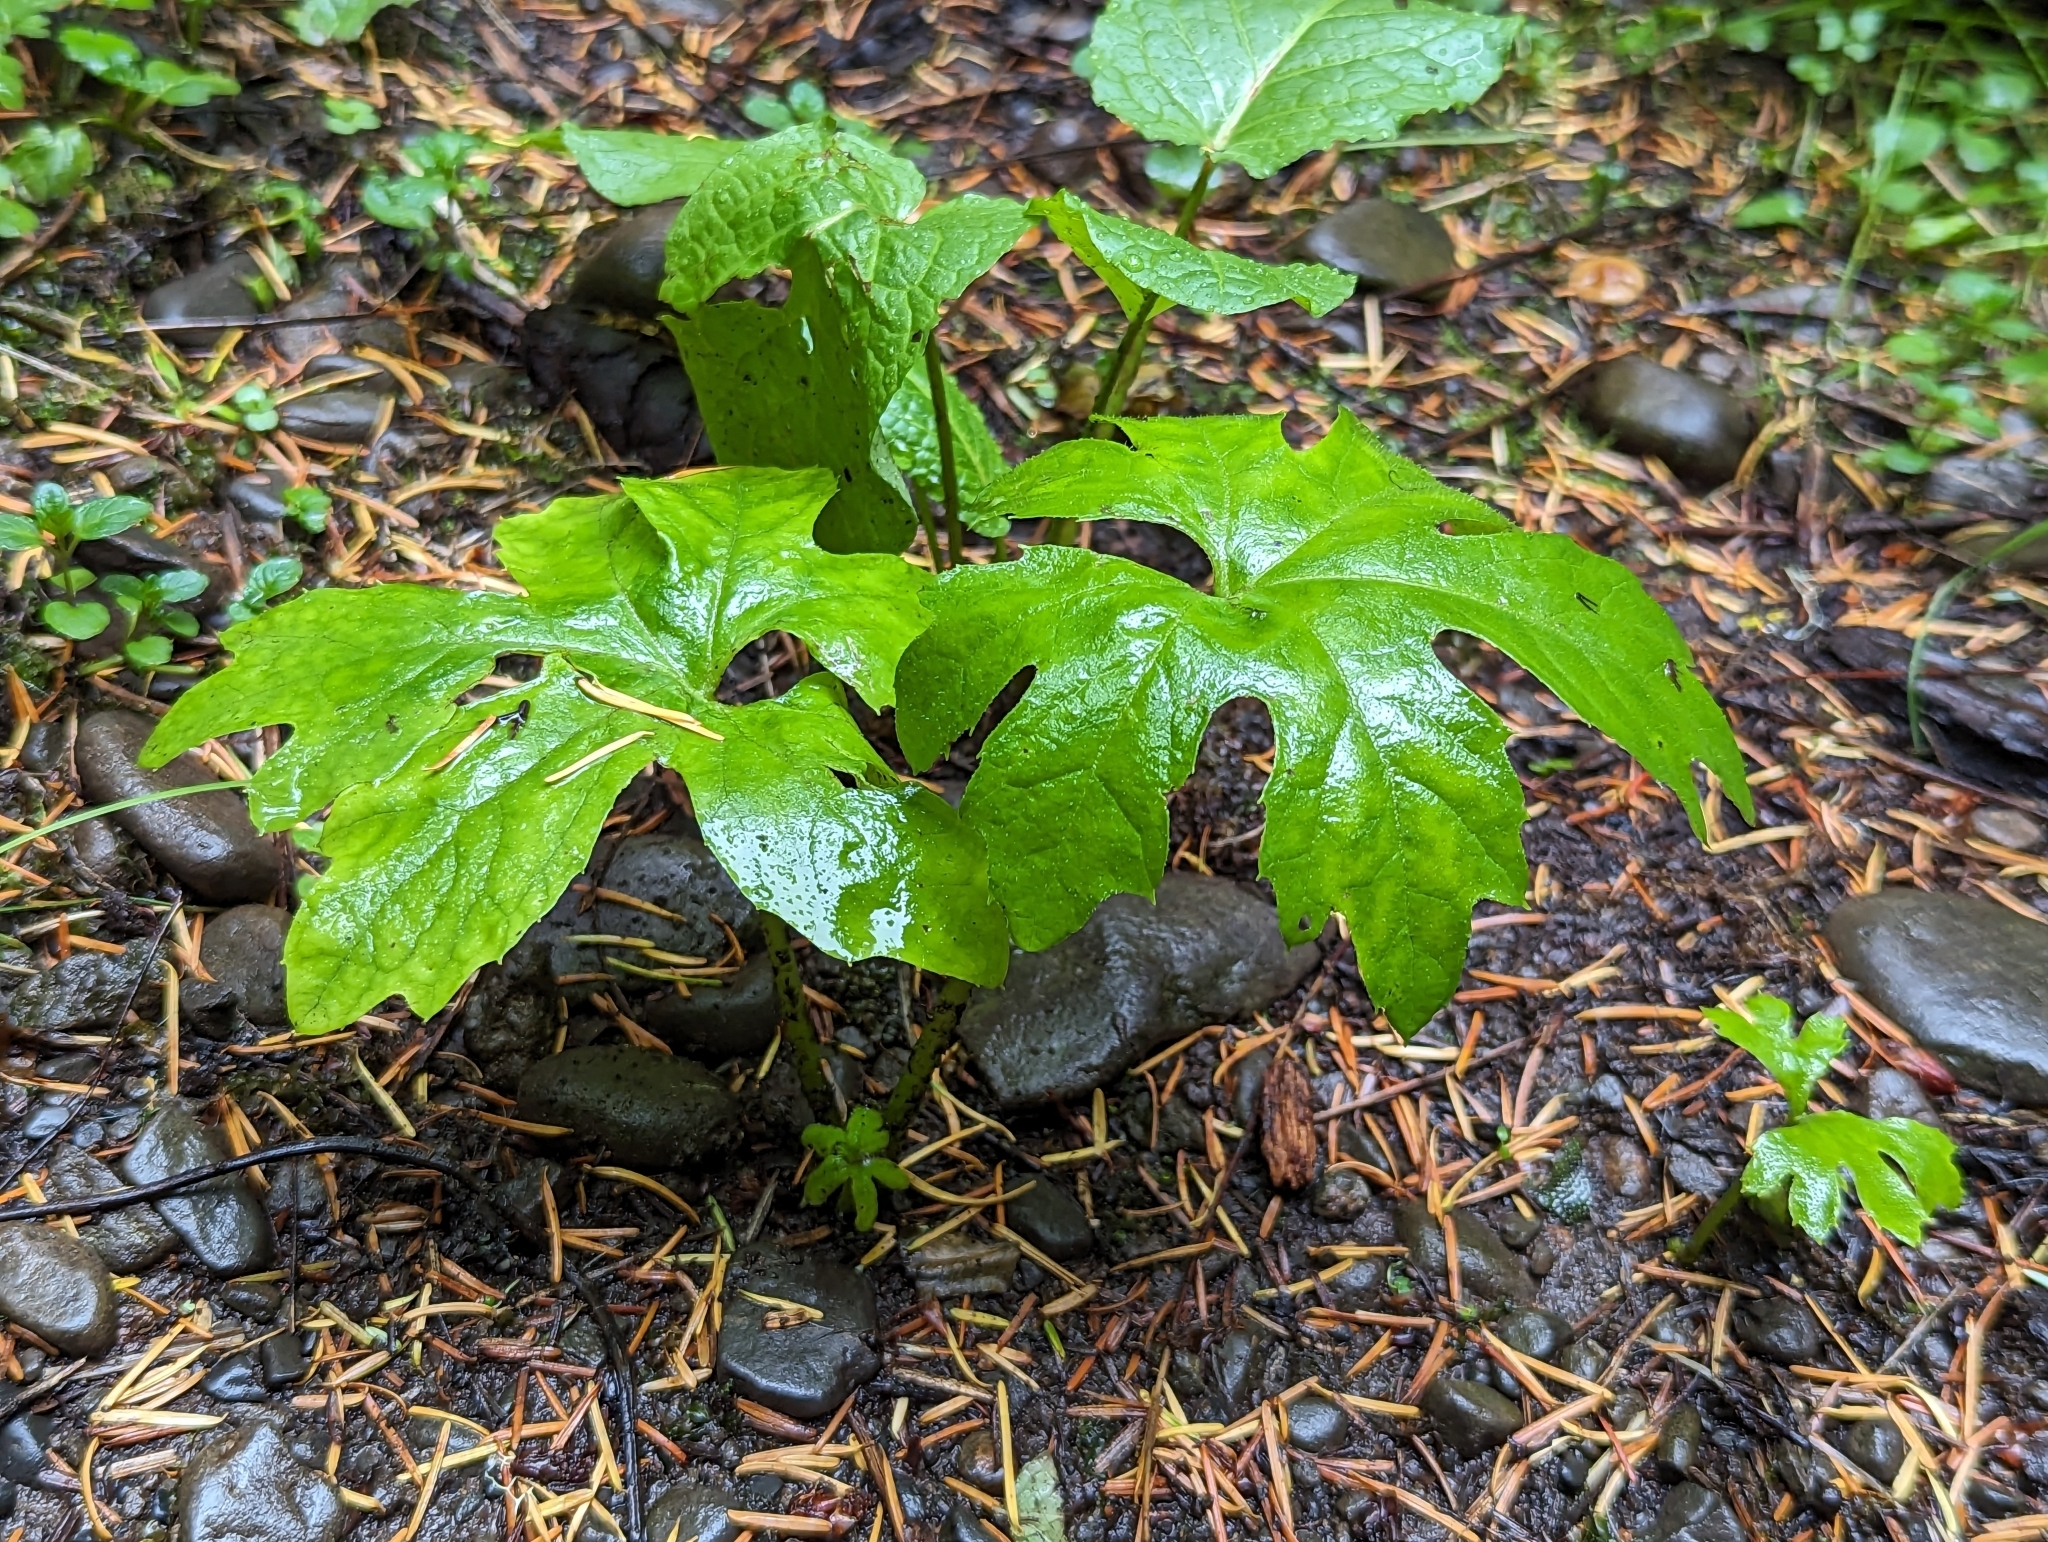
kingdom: Plantae
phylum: Tracheophyta
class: Magnoliopsida
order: Asterales
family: Asteraceae
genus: Petasites
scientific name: Petasites frigidus
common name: Arctic butterbur
